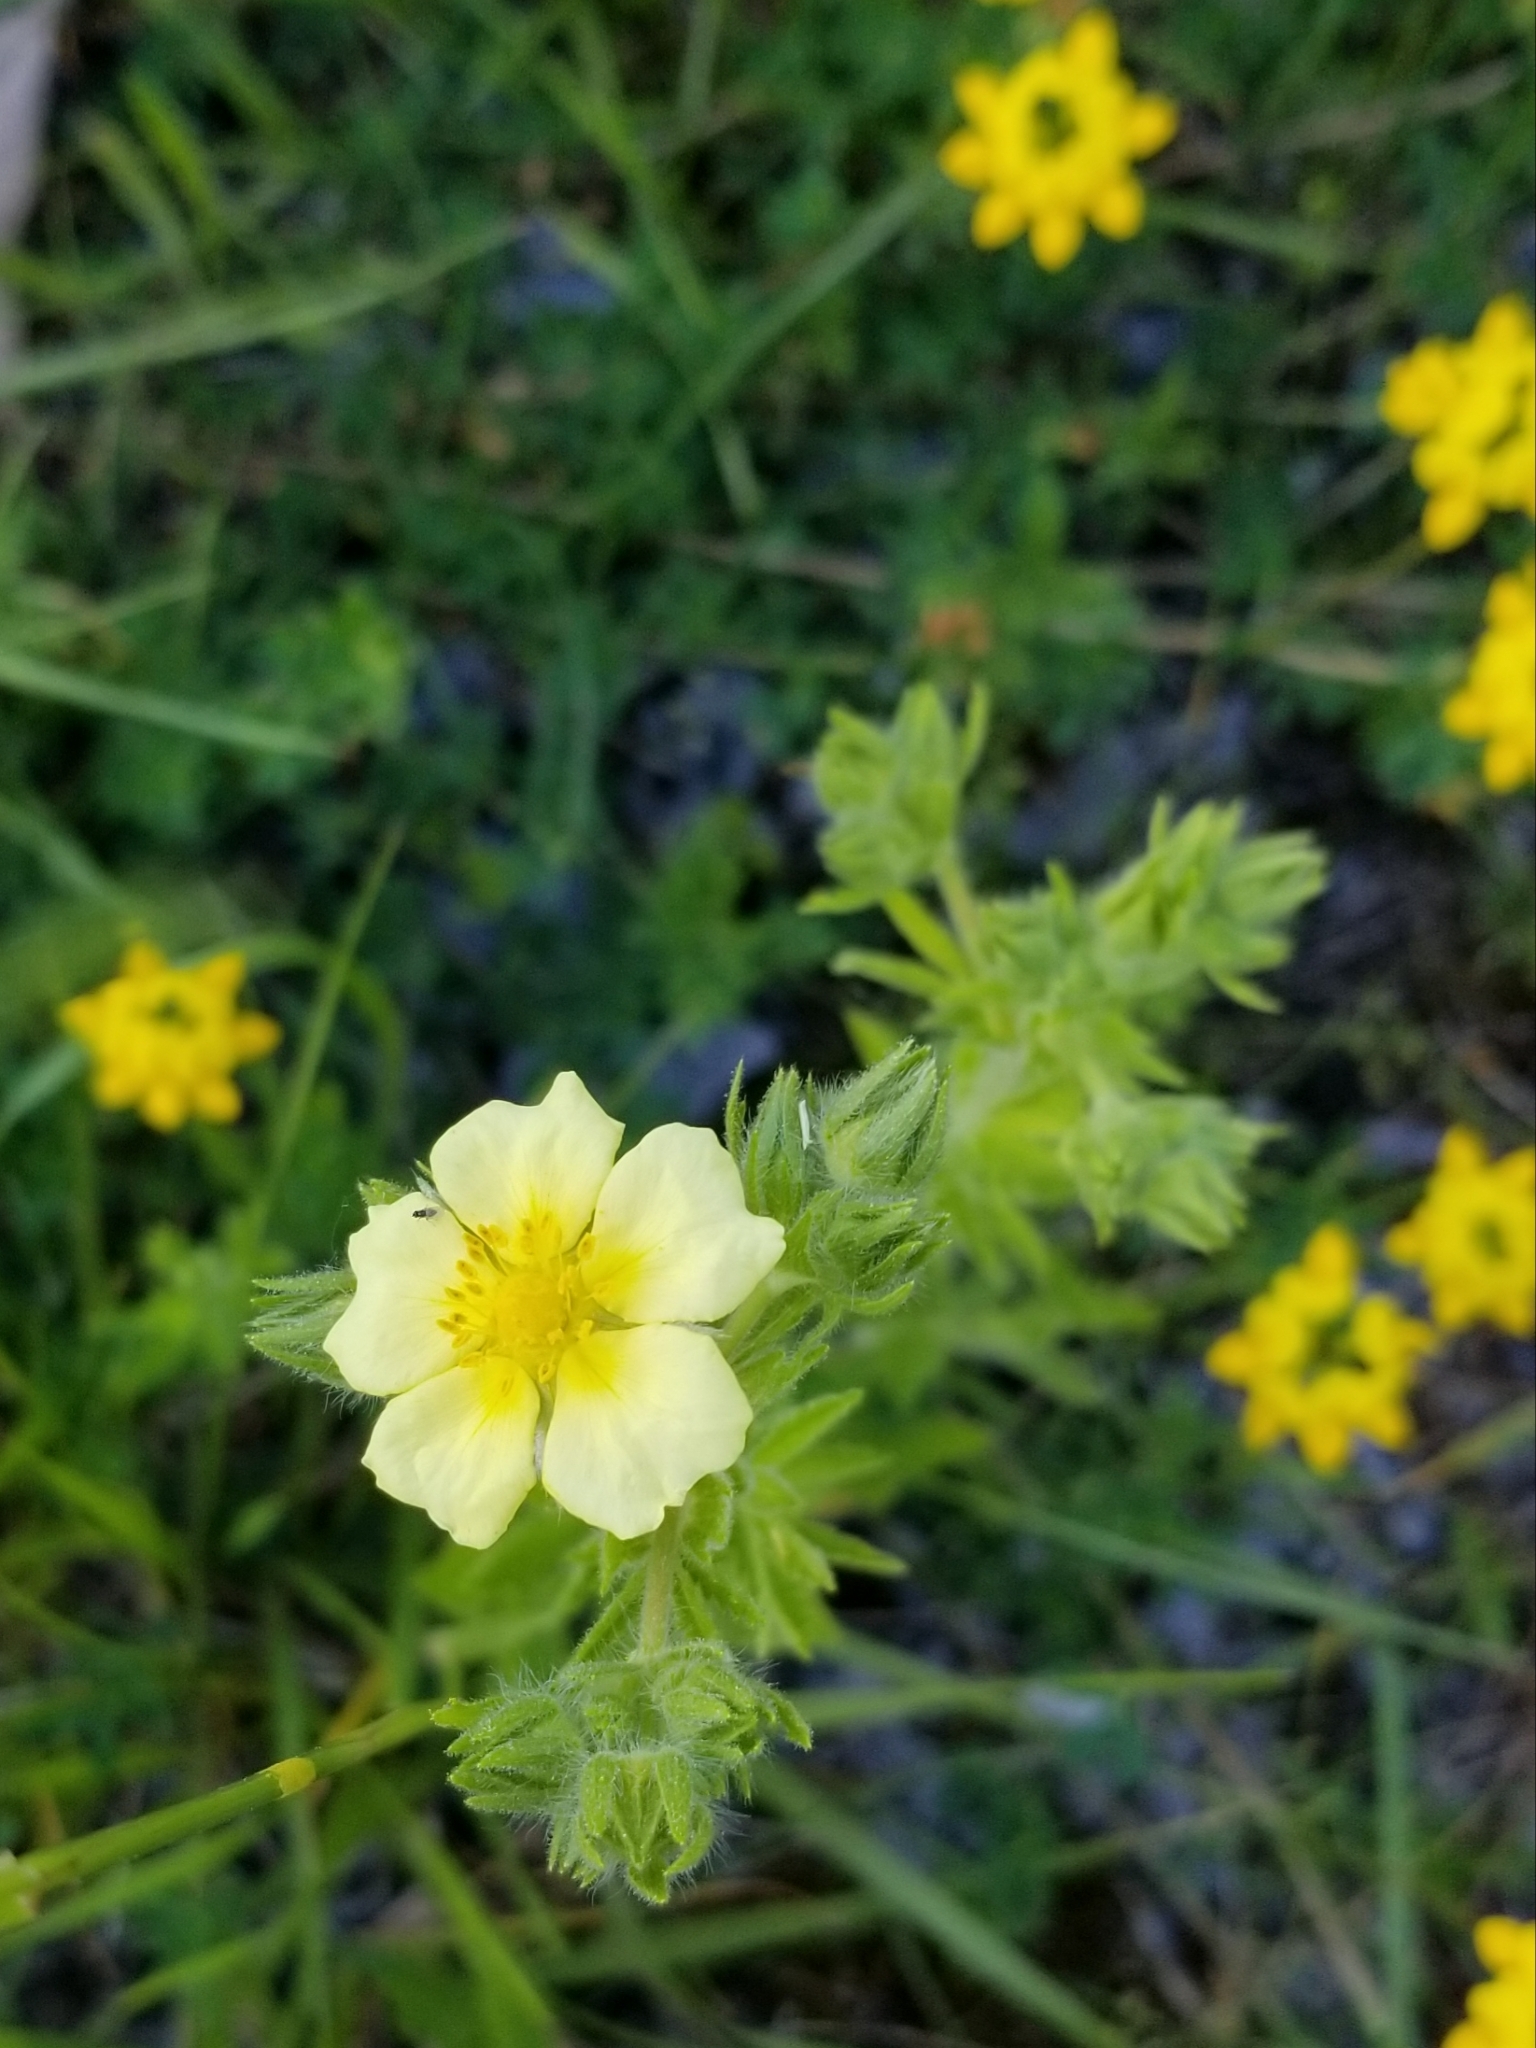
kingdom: Plantae
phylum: Tracheophyta
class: Magnoliopsida
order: Rosales
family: Rosaceae
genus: Potentilla
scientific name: Potentilla recta
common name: Sulphur cinquefoil
